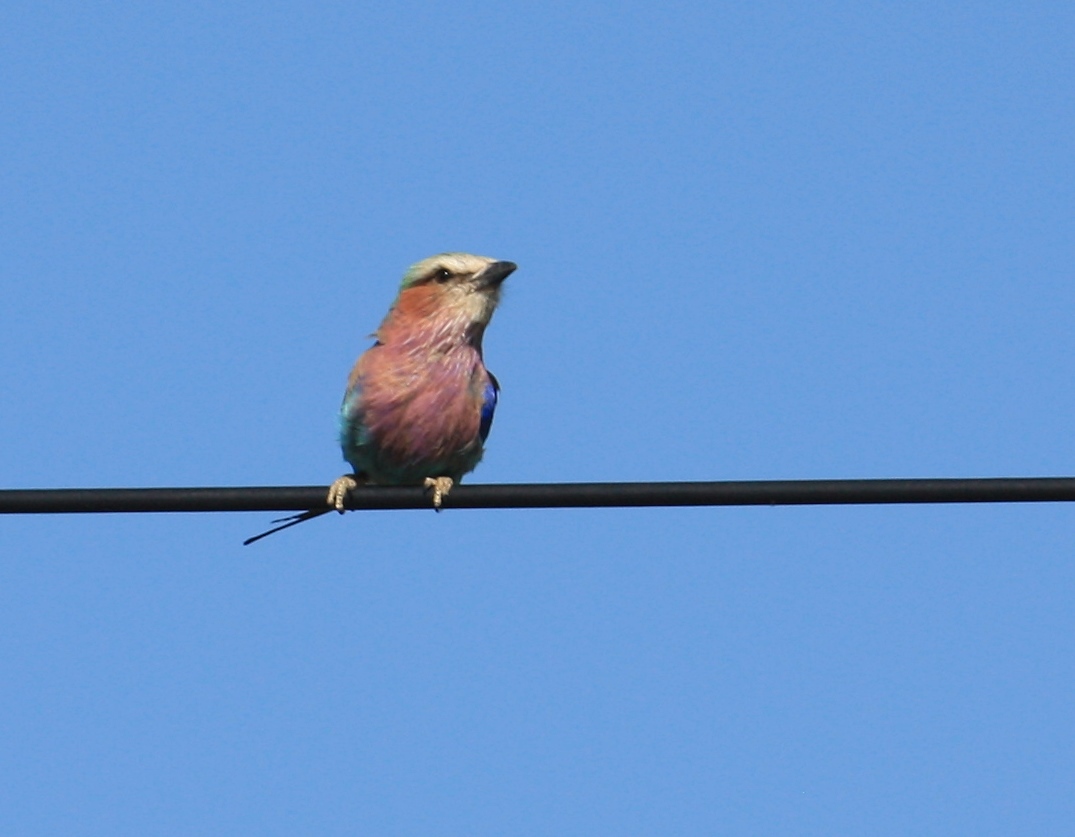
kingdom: Animalia
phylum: Chordata
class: Aves
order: Coraciiformes
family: Coraciidae
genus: Coracias
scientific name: Coracias caudatus
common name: Lilac-breasted roller
